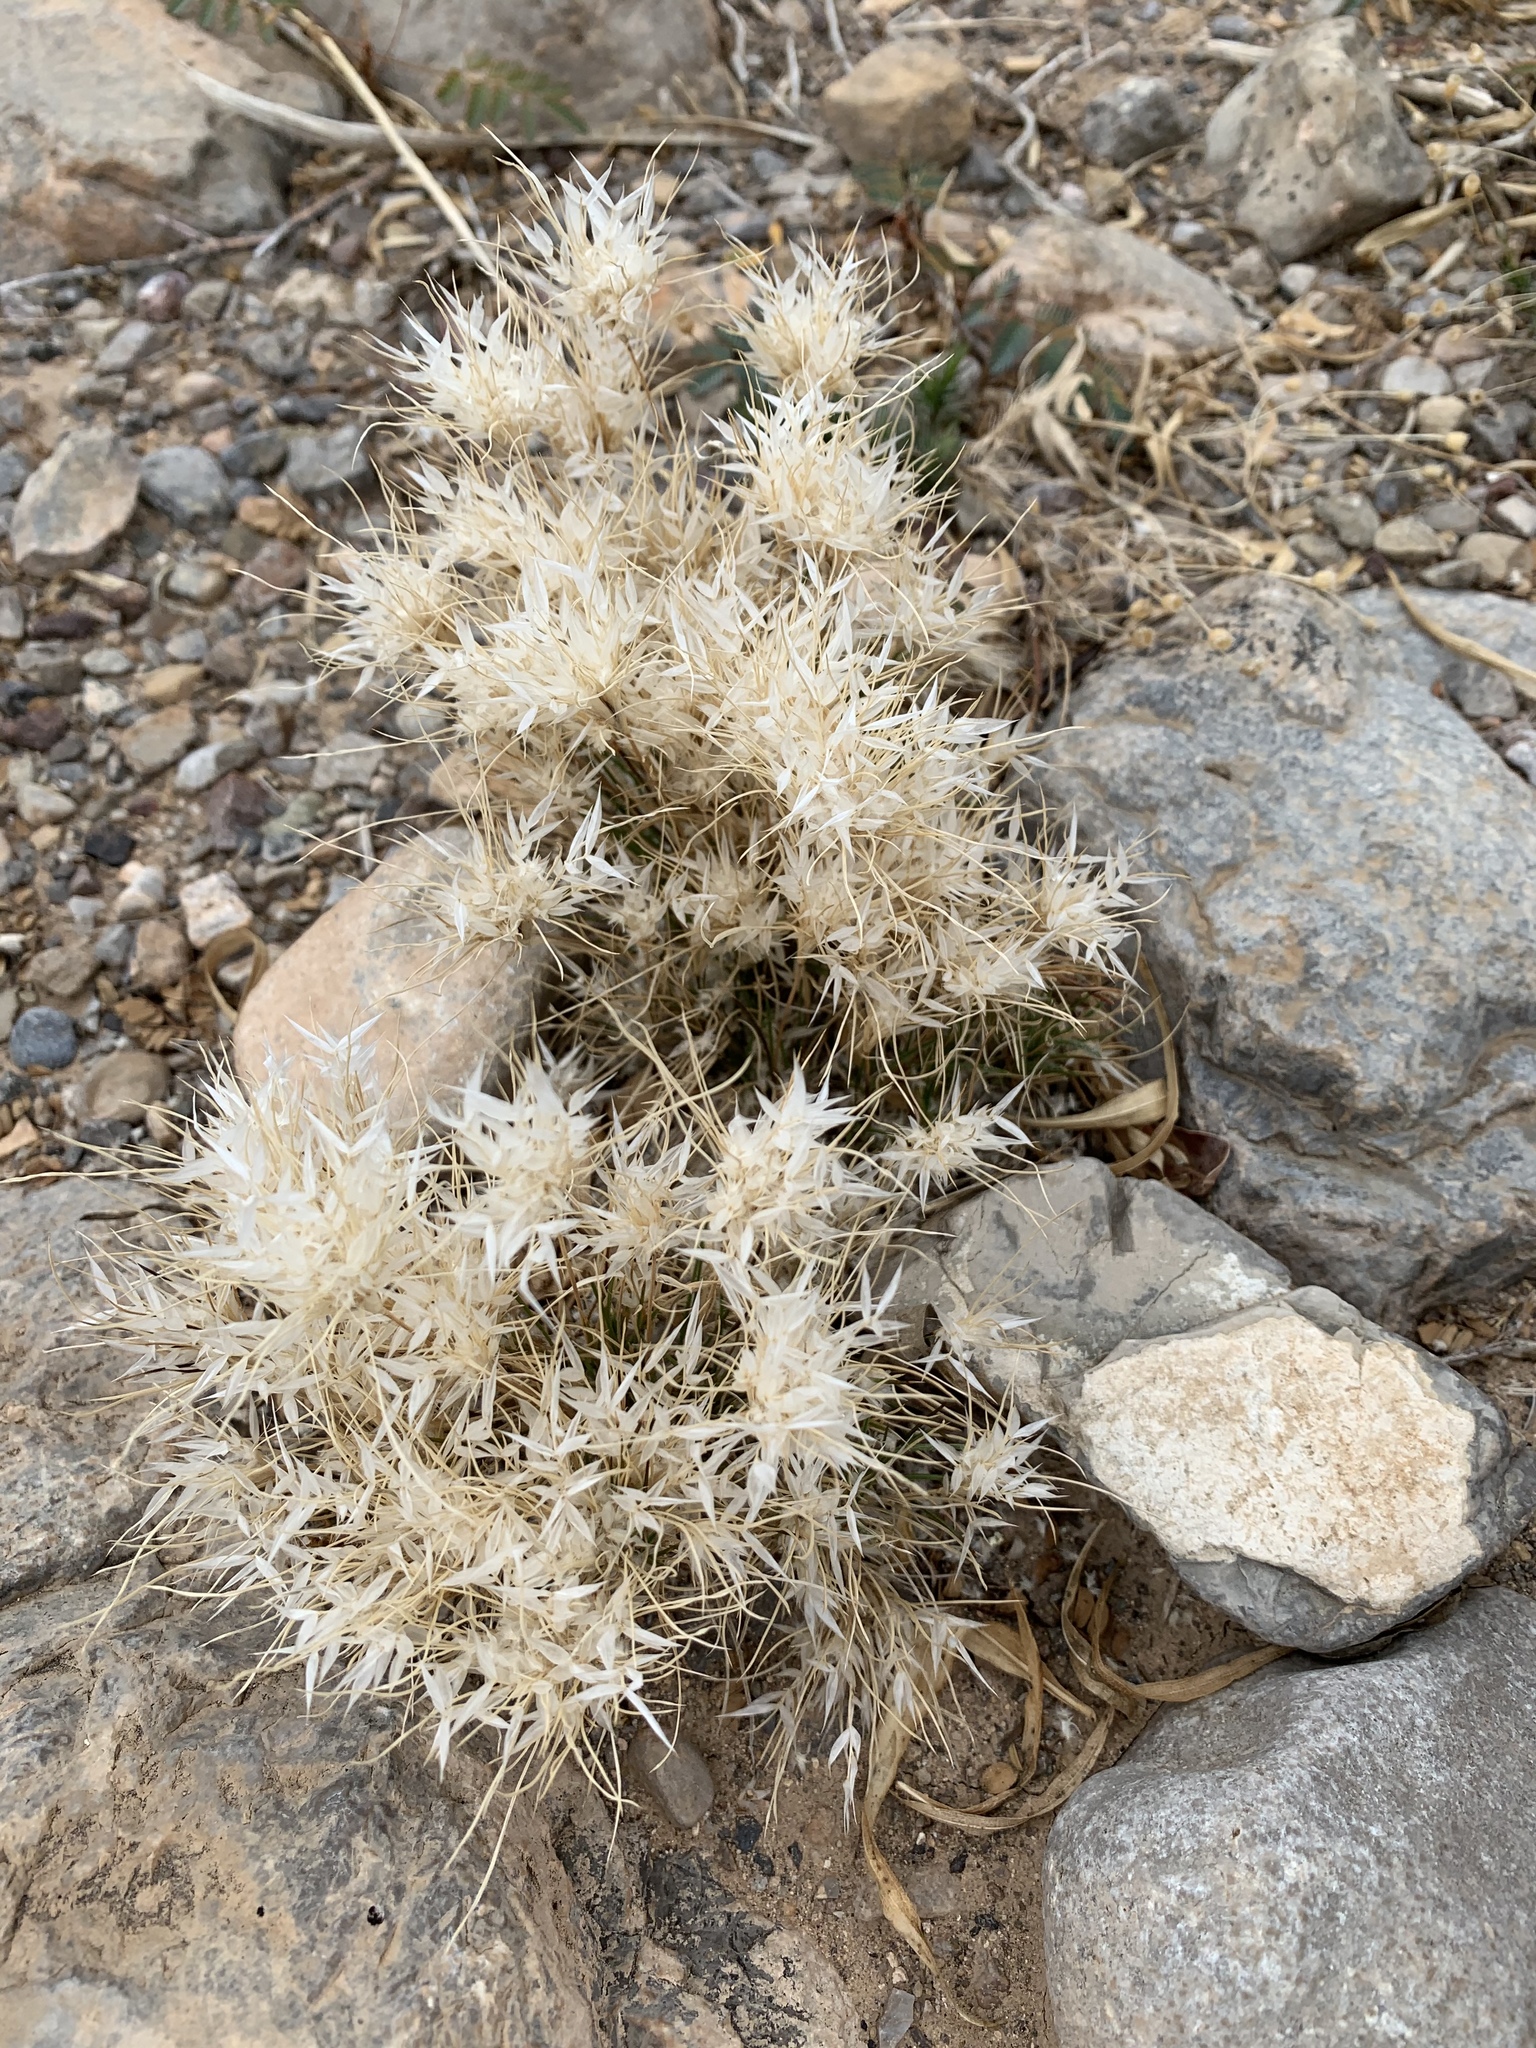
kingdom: Plantae
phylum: Tracheophyta
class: Liliopsida
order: Poales
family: Poaceae
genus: Dasyochloa
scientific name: Dasyochloa pulchella
